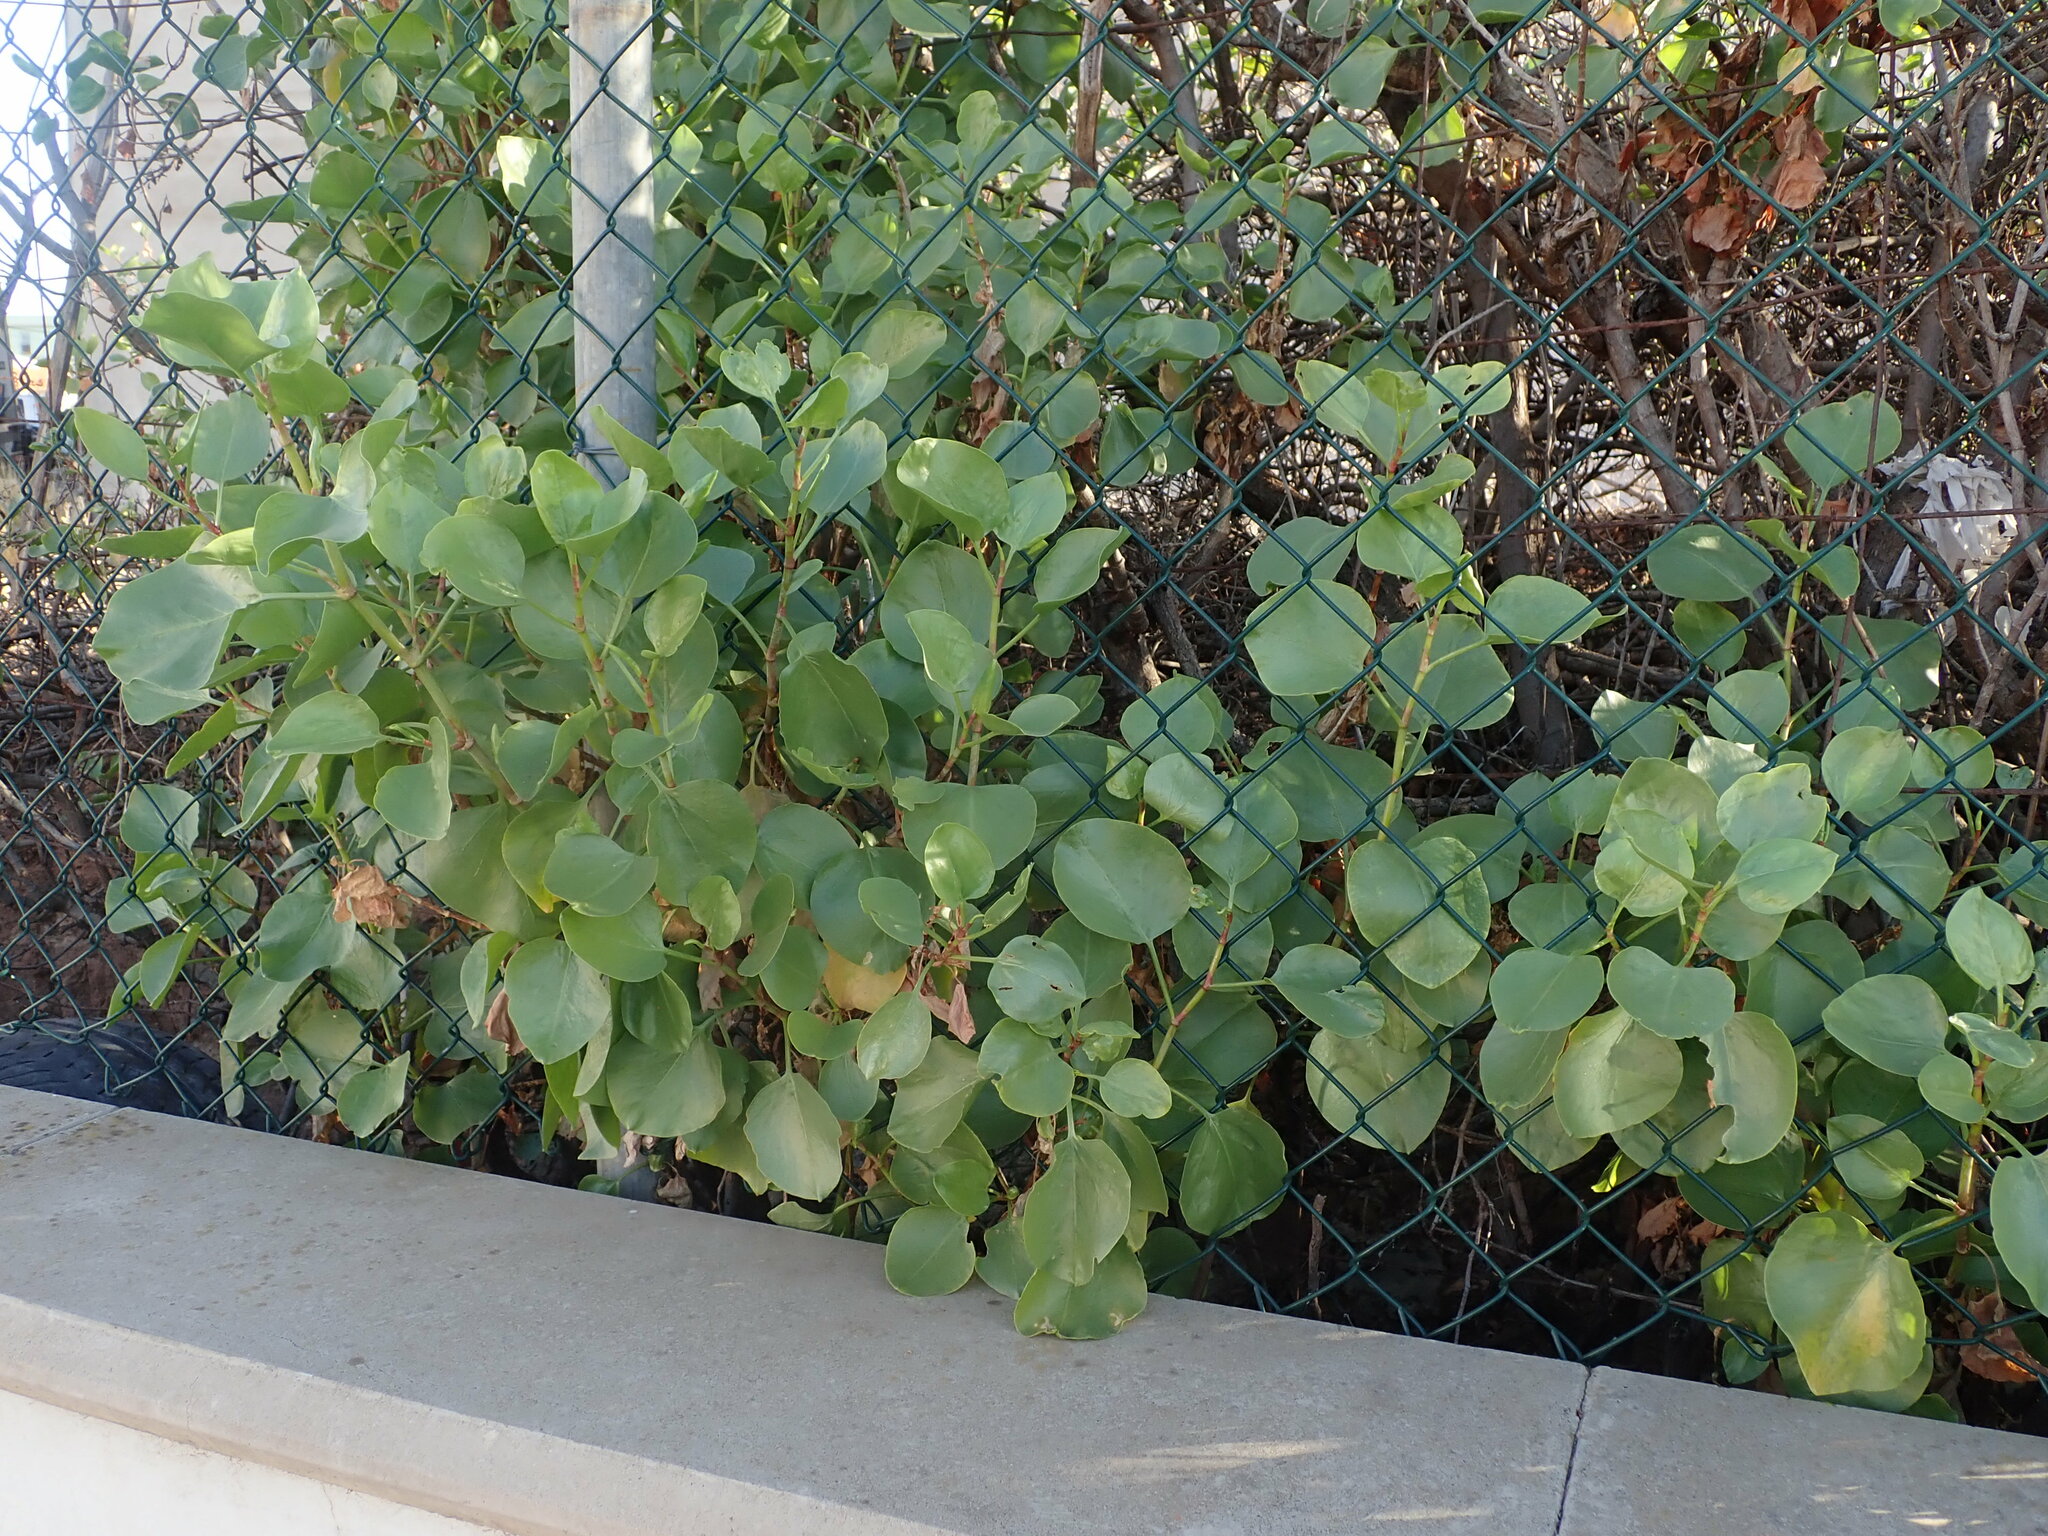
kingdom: Plantae
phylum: Tracheophyta
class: Magnoliopsida
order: Caryophyllales
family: Polygonaceae
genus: Rumex
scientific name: Rumex lunaria
